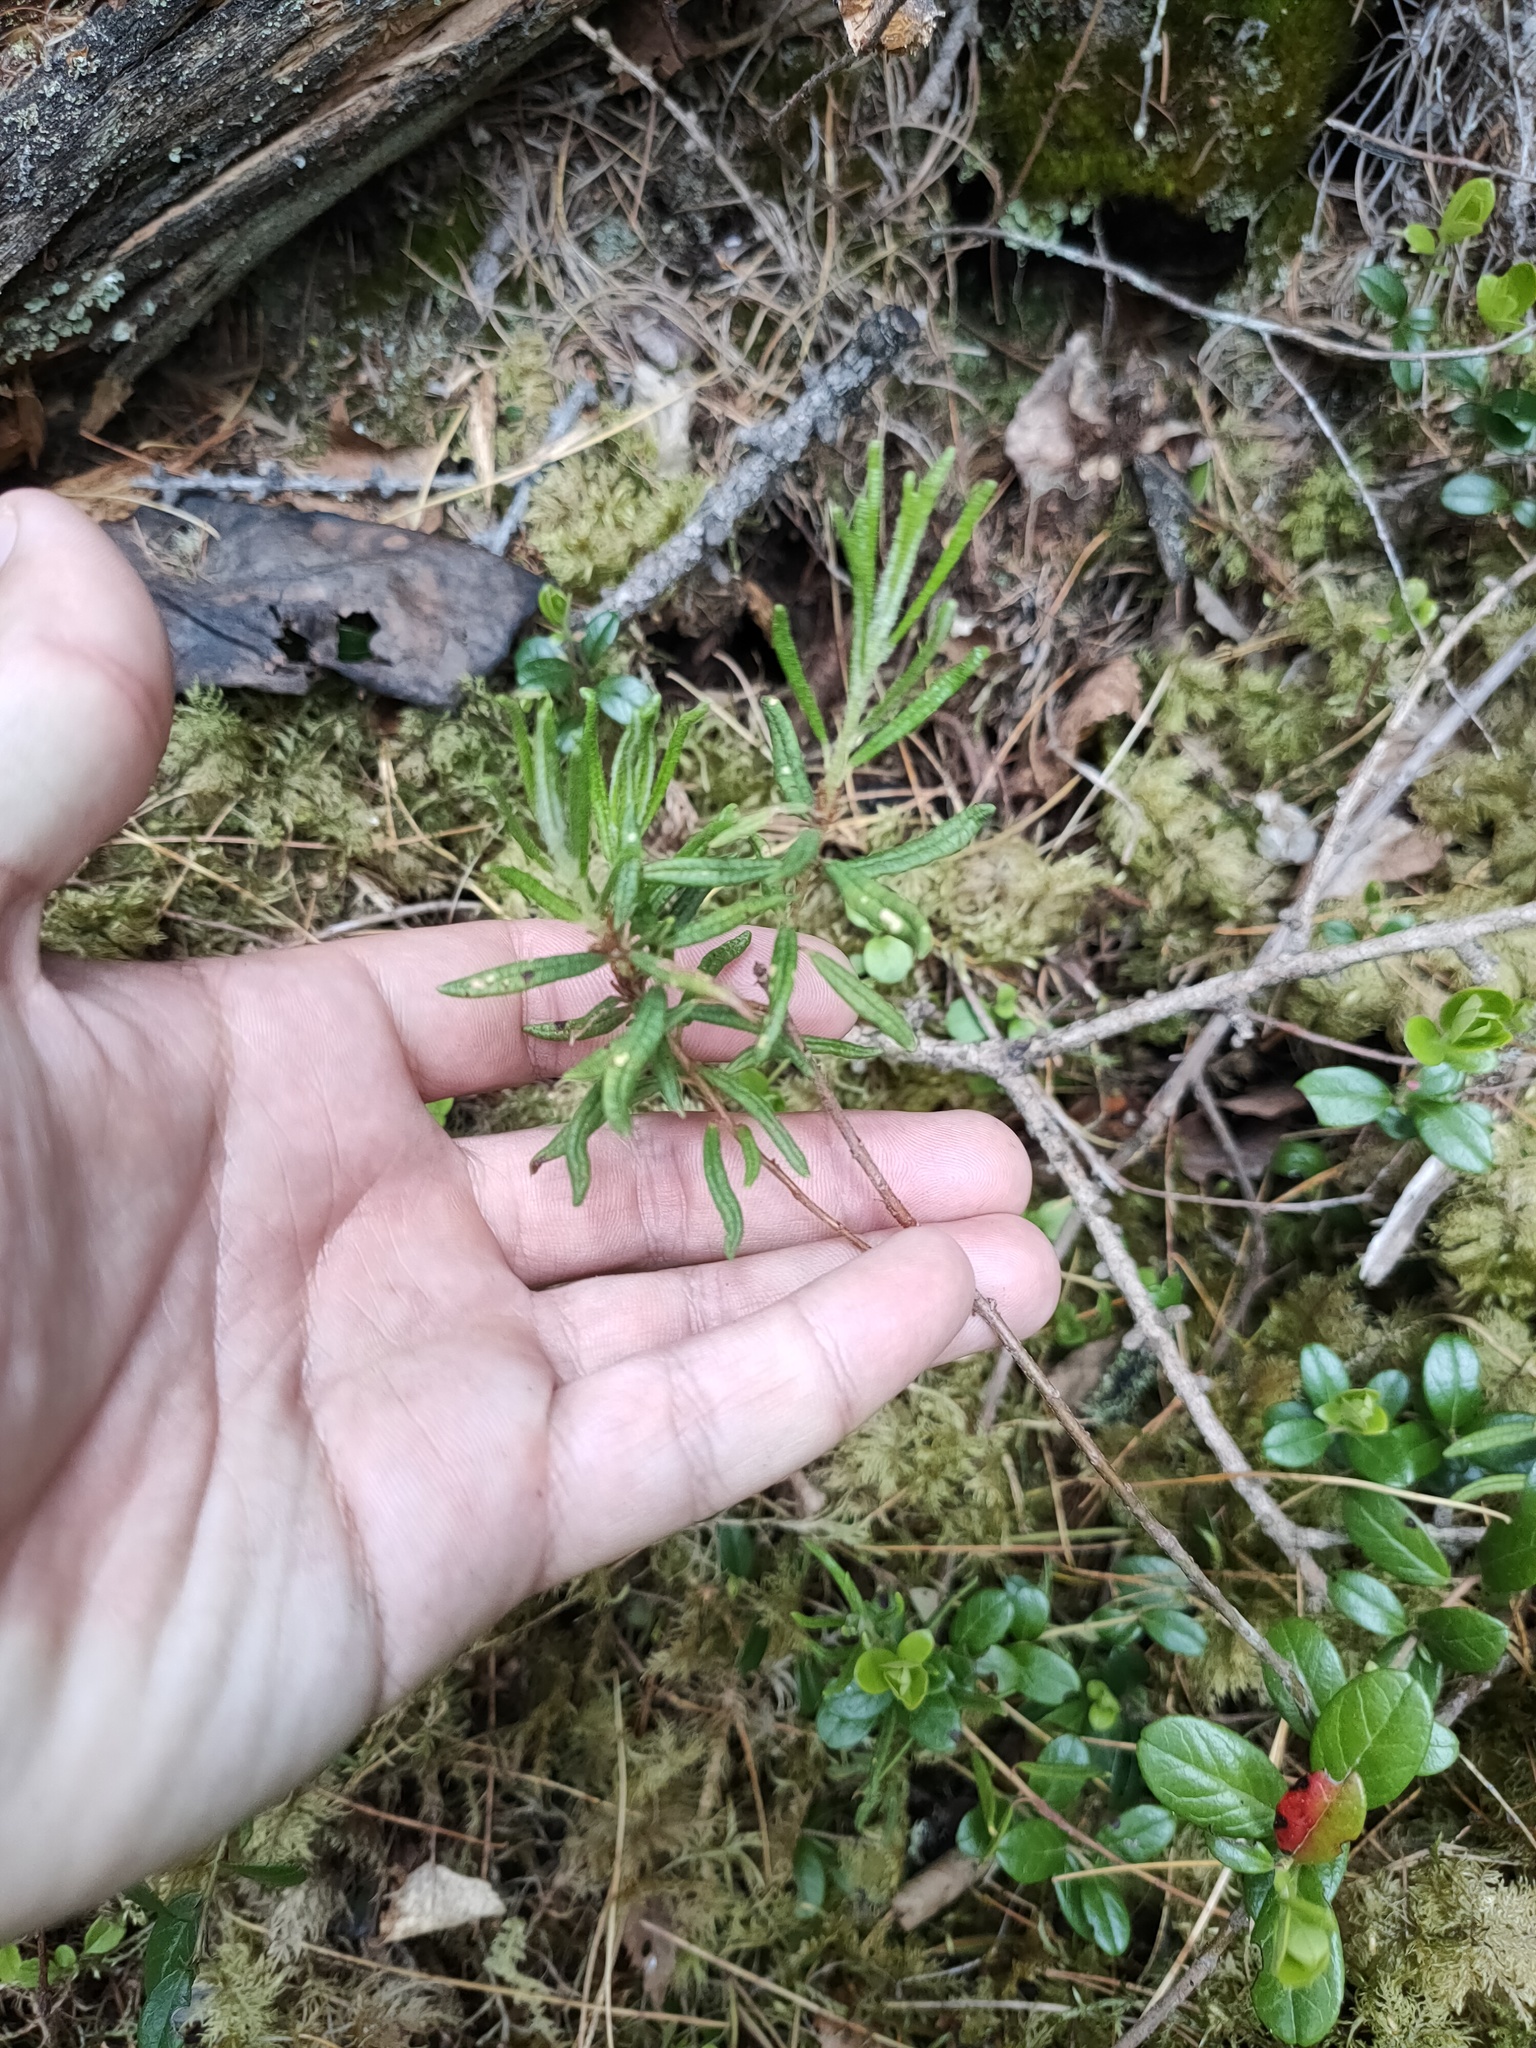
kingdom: Plantae
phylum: Tracheophyta
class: Magnoliopsida
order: Ericales
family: Ericaceae
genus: Rhododendron
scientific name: Rhododendron tomentosum
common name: Marsh labrador tea
